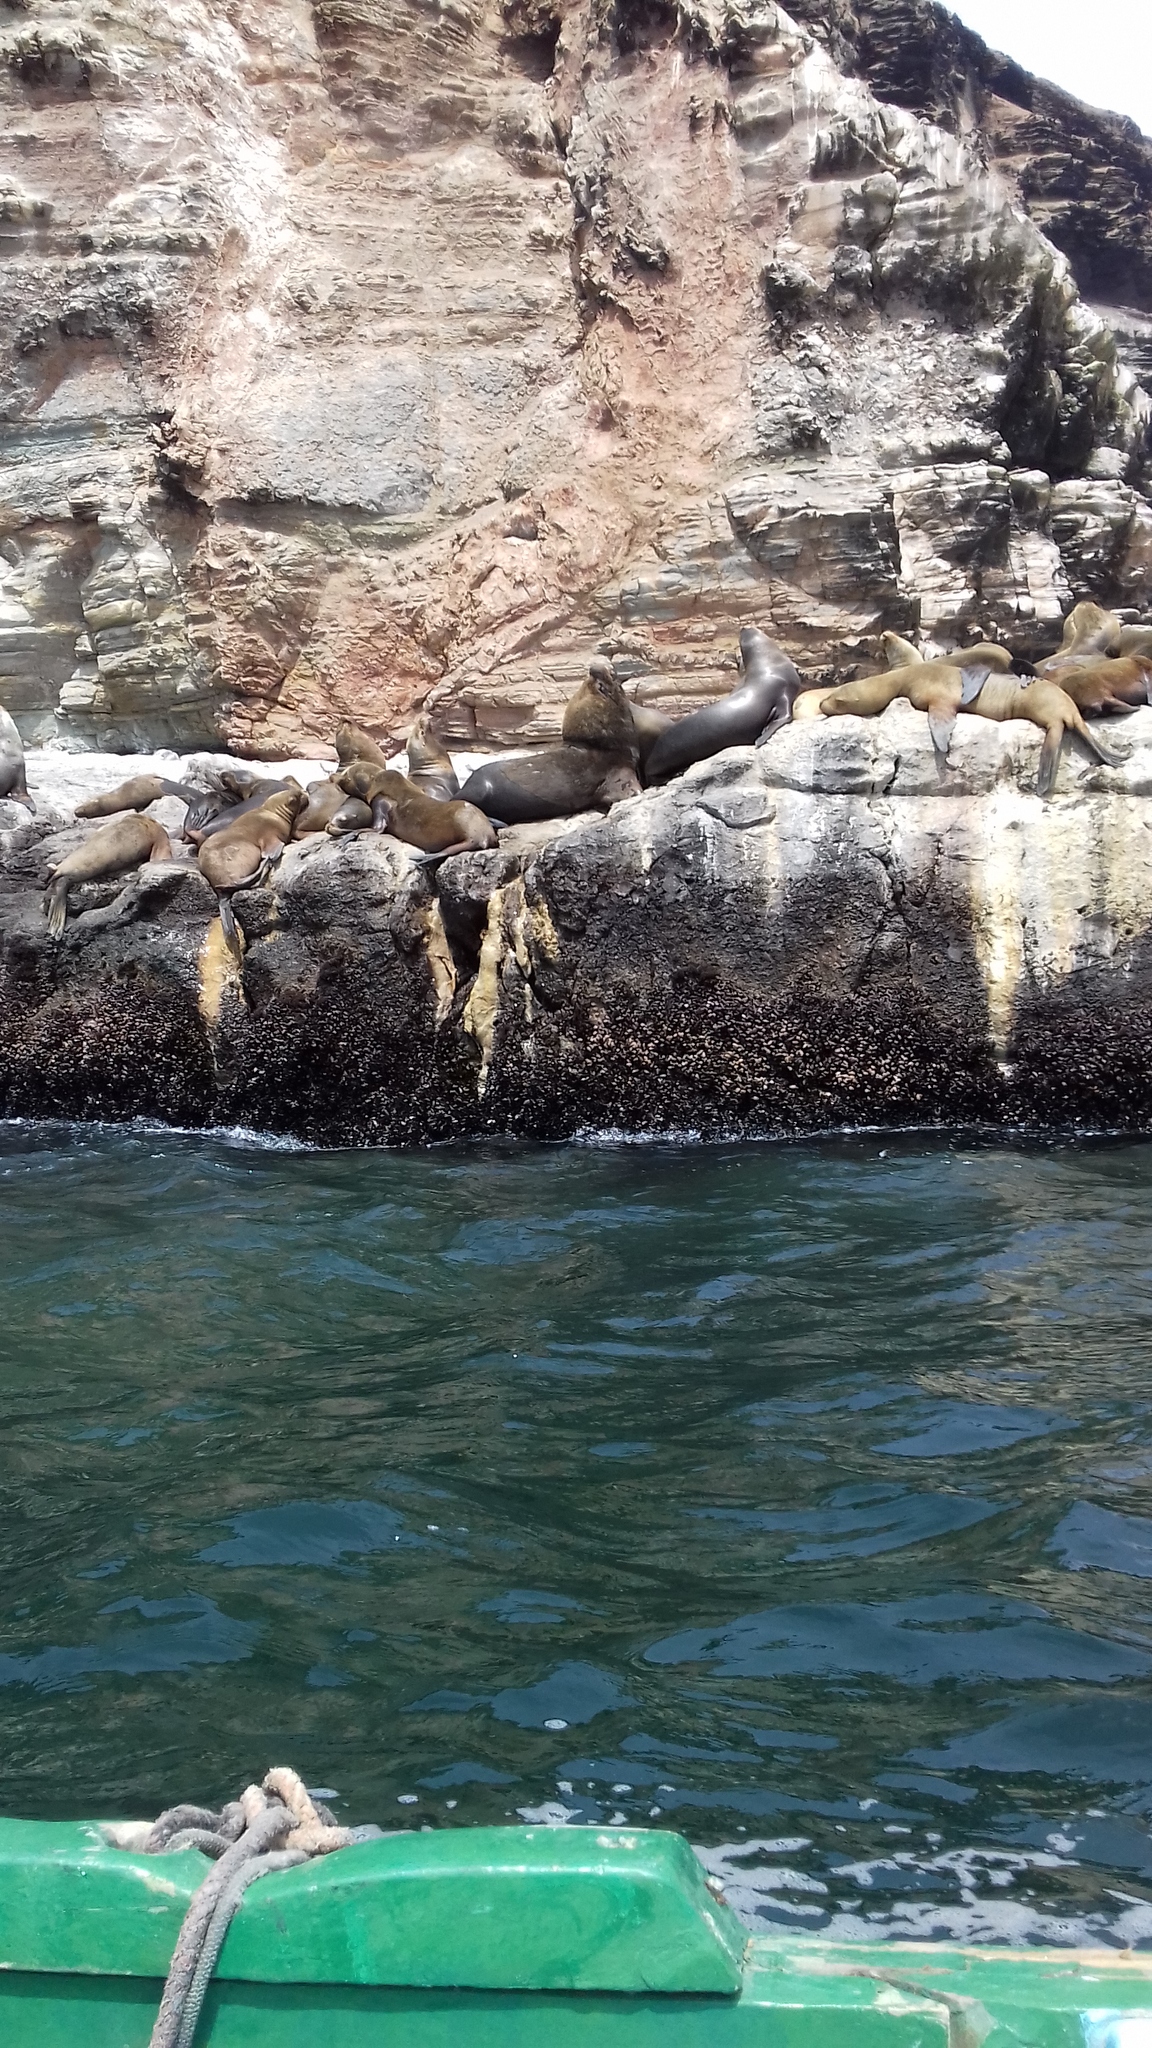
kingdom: Animalia
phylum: Chordata
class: Mammalia
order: Carnivora
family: Otariidae
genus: Otaria
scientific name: Otaria byronia
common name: South american sea lion
